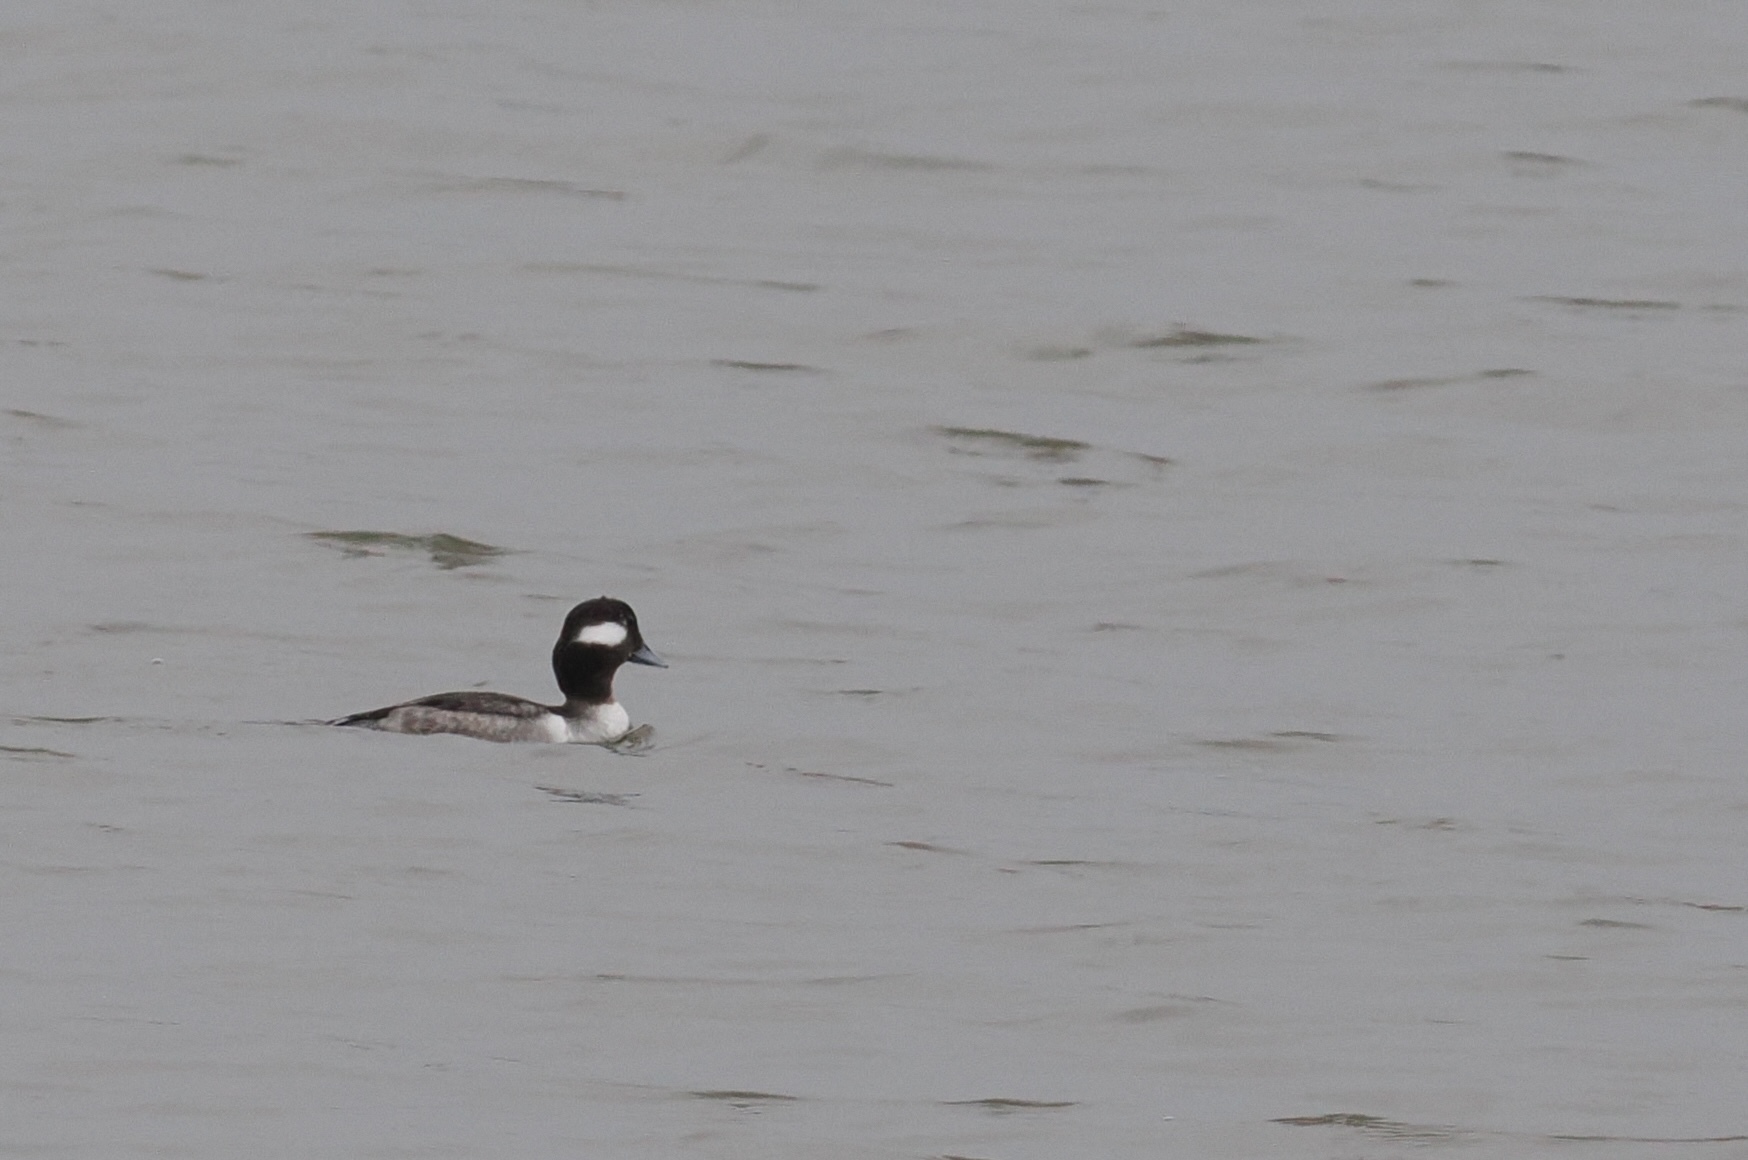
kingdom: Animalia
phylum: Chordata
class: Aves
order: Anseriformes
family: Anatidae
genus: Bucephala
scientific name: Bucephala albeola
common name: Bufflehead
